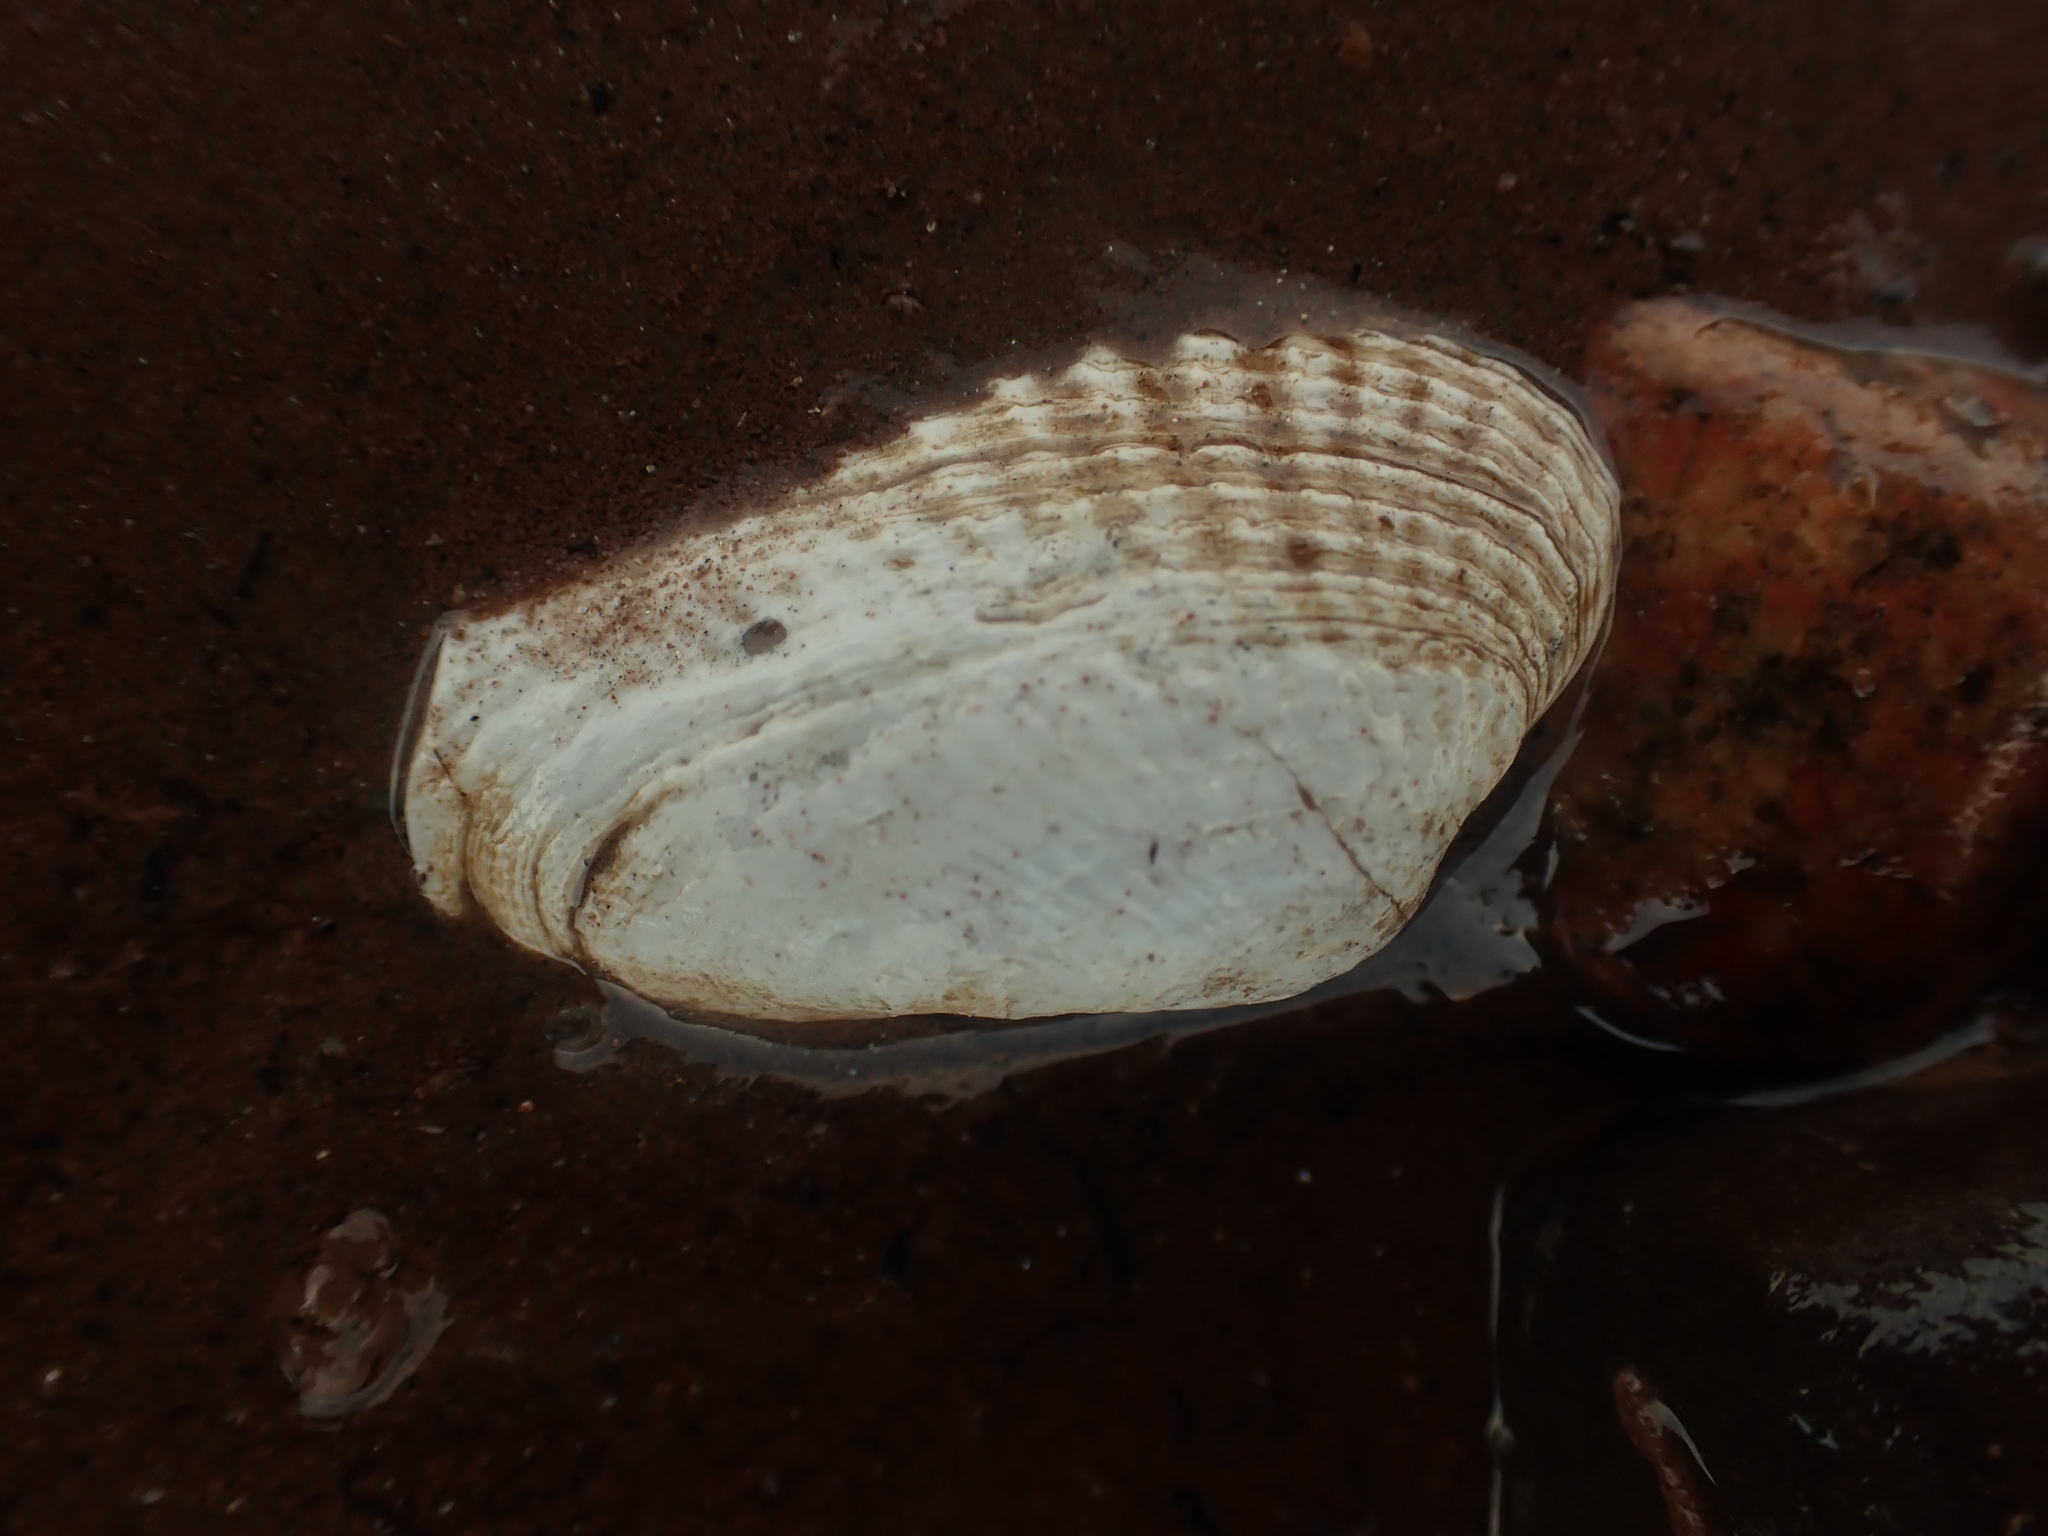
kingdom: Animalia
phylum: Mollusca
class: Bivalvia
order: Venerida
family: Veneridae
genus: Petricolaria
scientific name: Petricolaria pholadiformis
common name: American piddock
